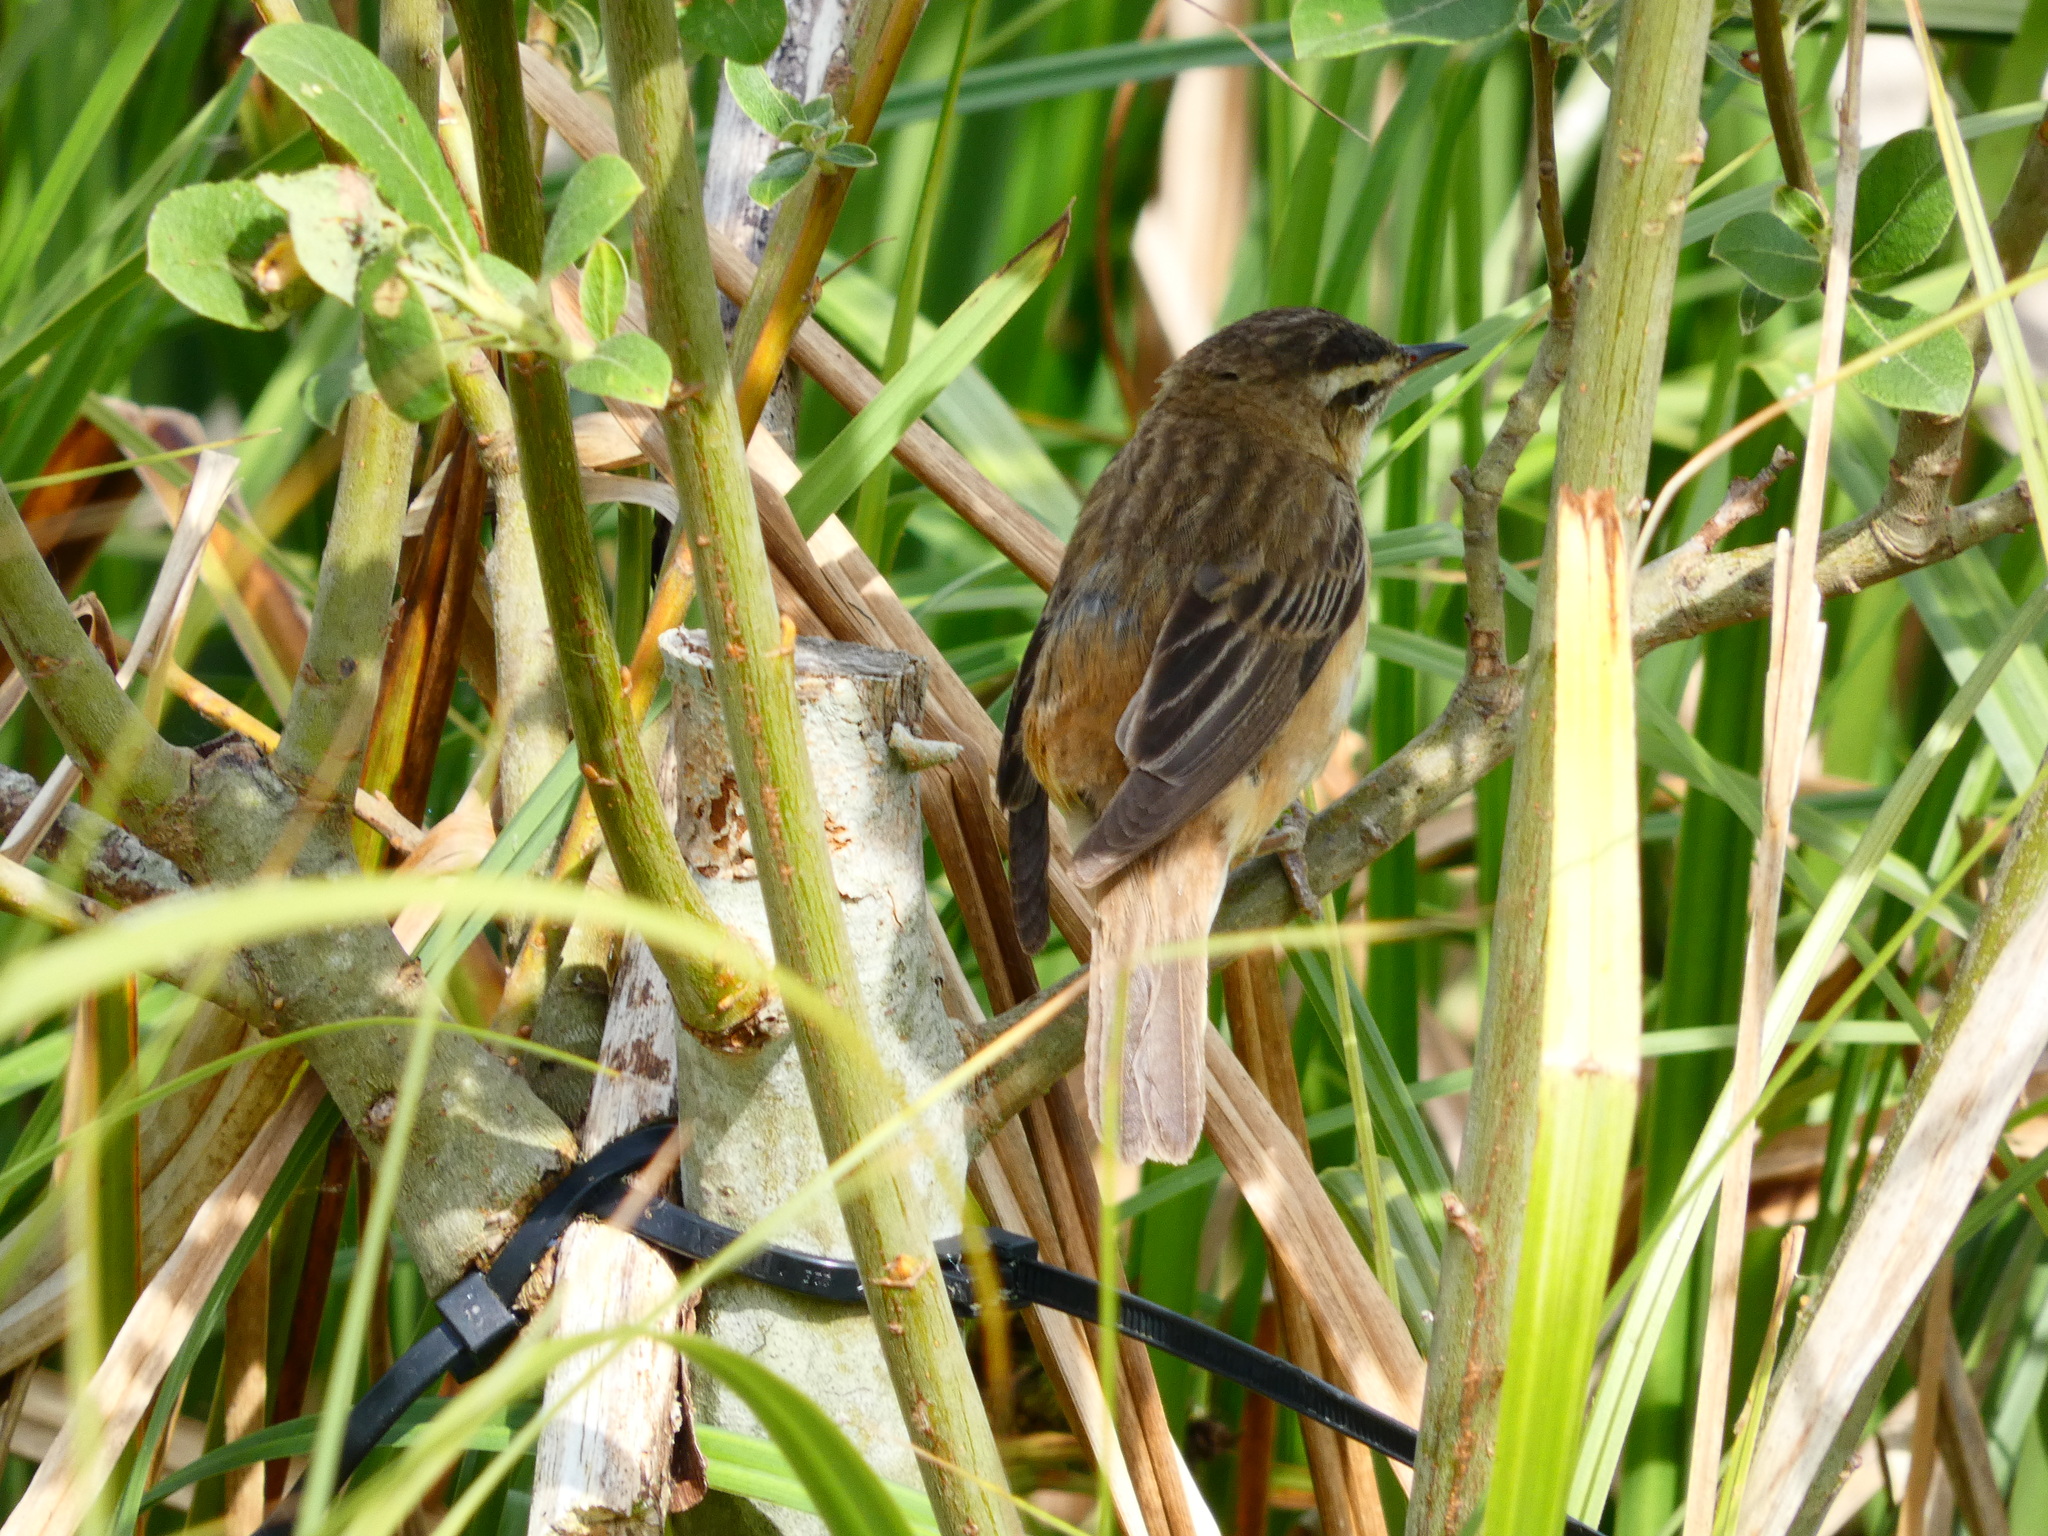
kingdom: Animalia
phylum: Chordata
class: Aves
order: Passeriformes
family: Acrocephalidae
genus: Acrocephalus
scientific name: Acrocephalus schoenobaenus
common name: Sedge warbler
